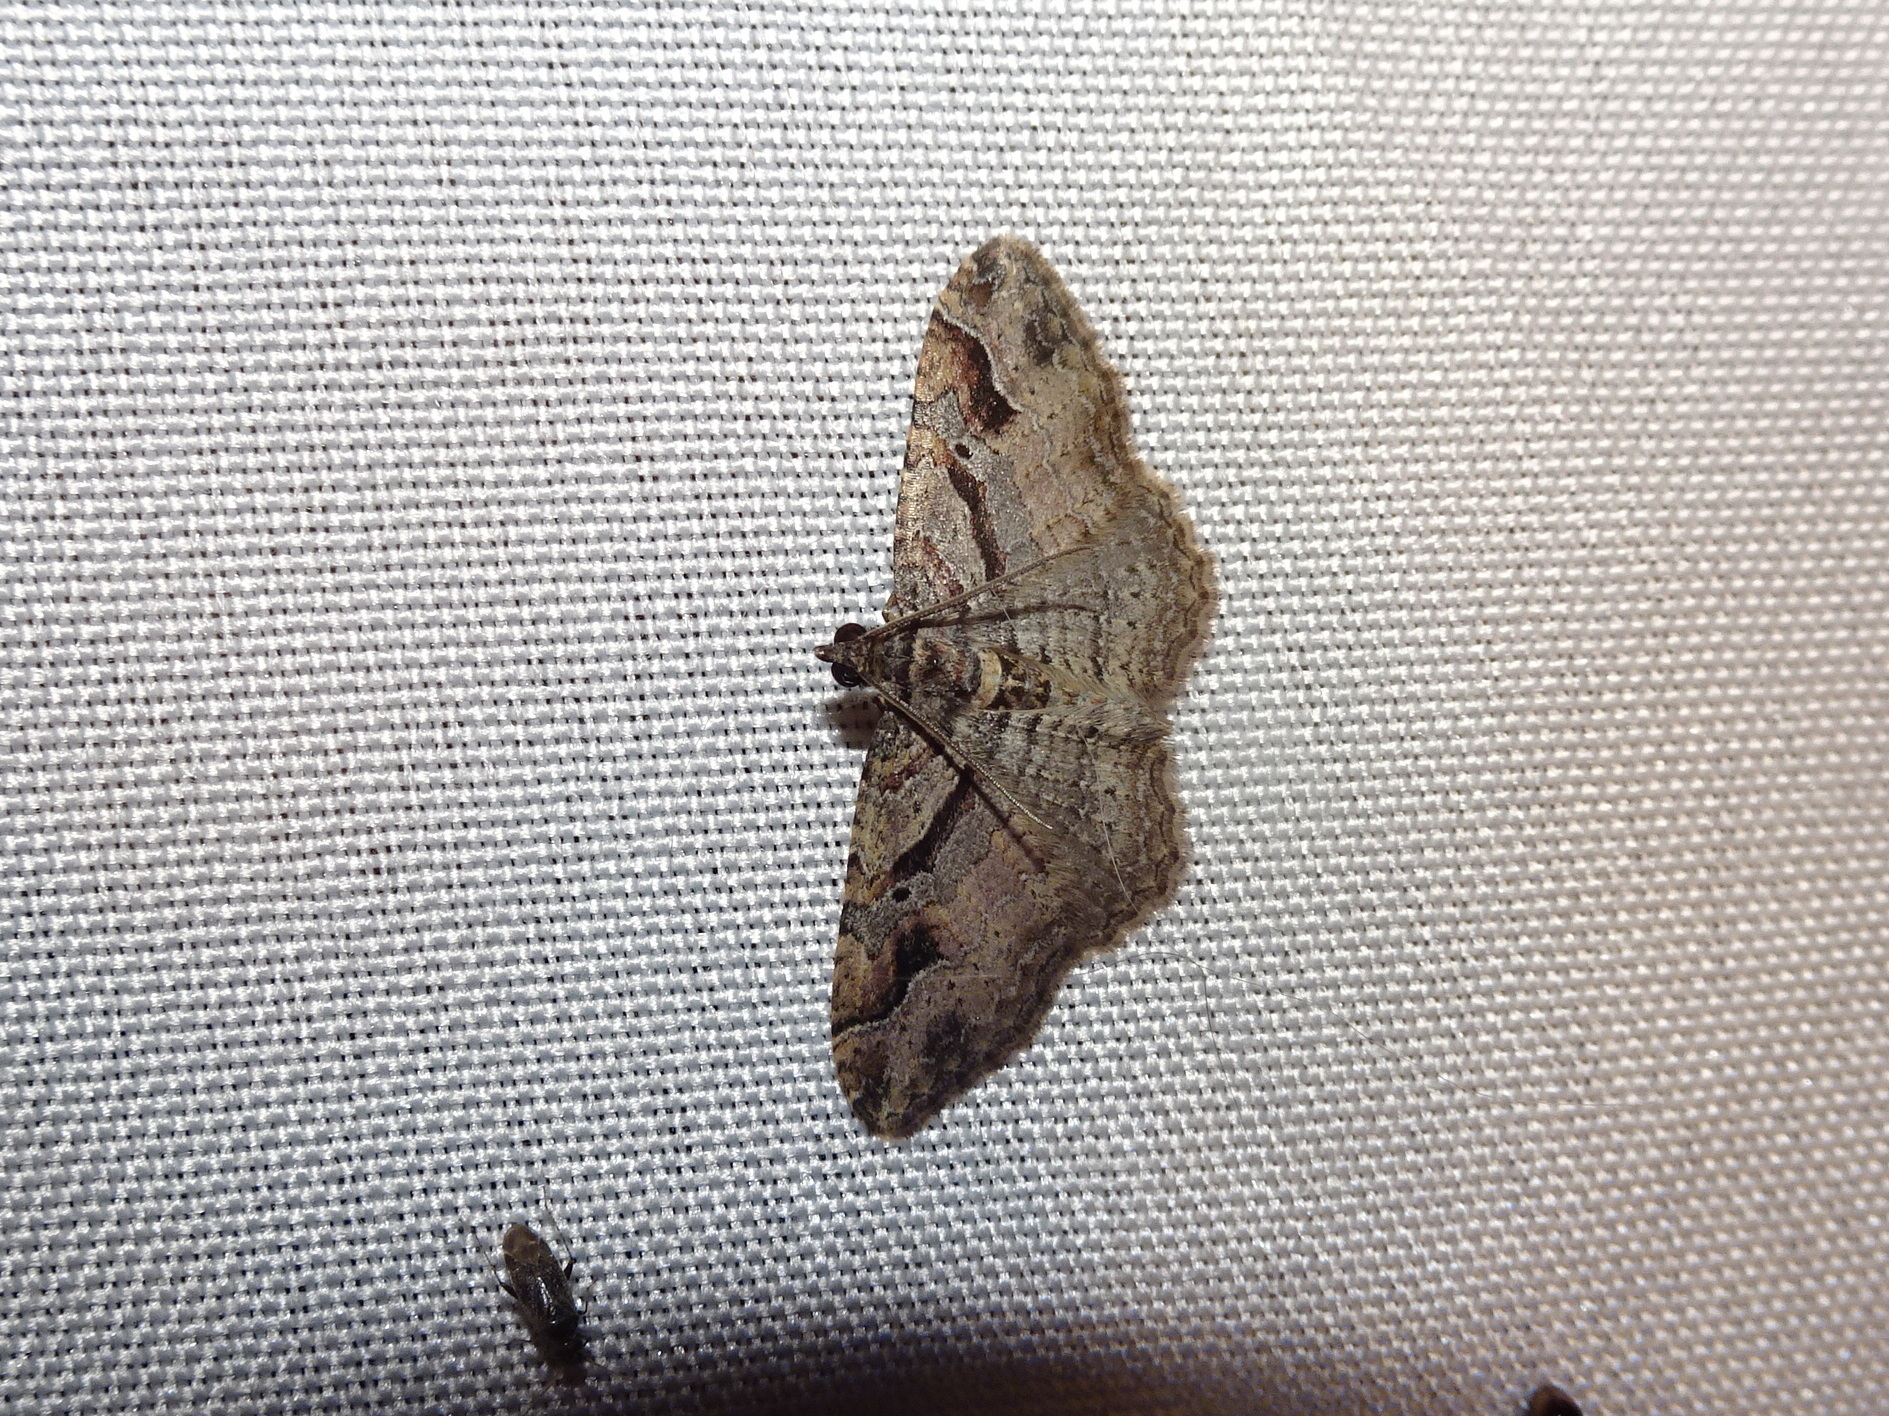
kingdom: Animalia
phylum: Arthropoda
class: Insecta
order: Lepidoptera
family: Geometridae
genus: Costaconvexa
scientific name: Costaconvexa centrostrigaria
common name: Bent-line carpet
